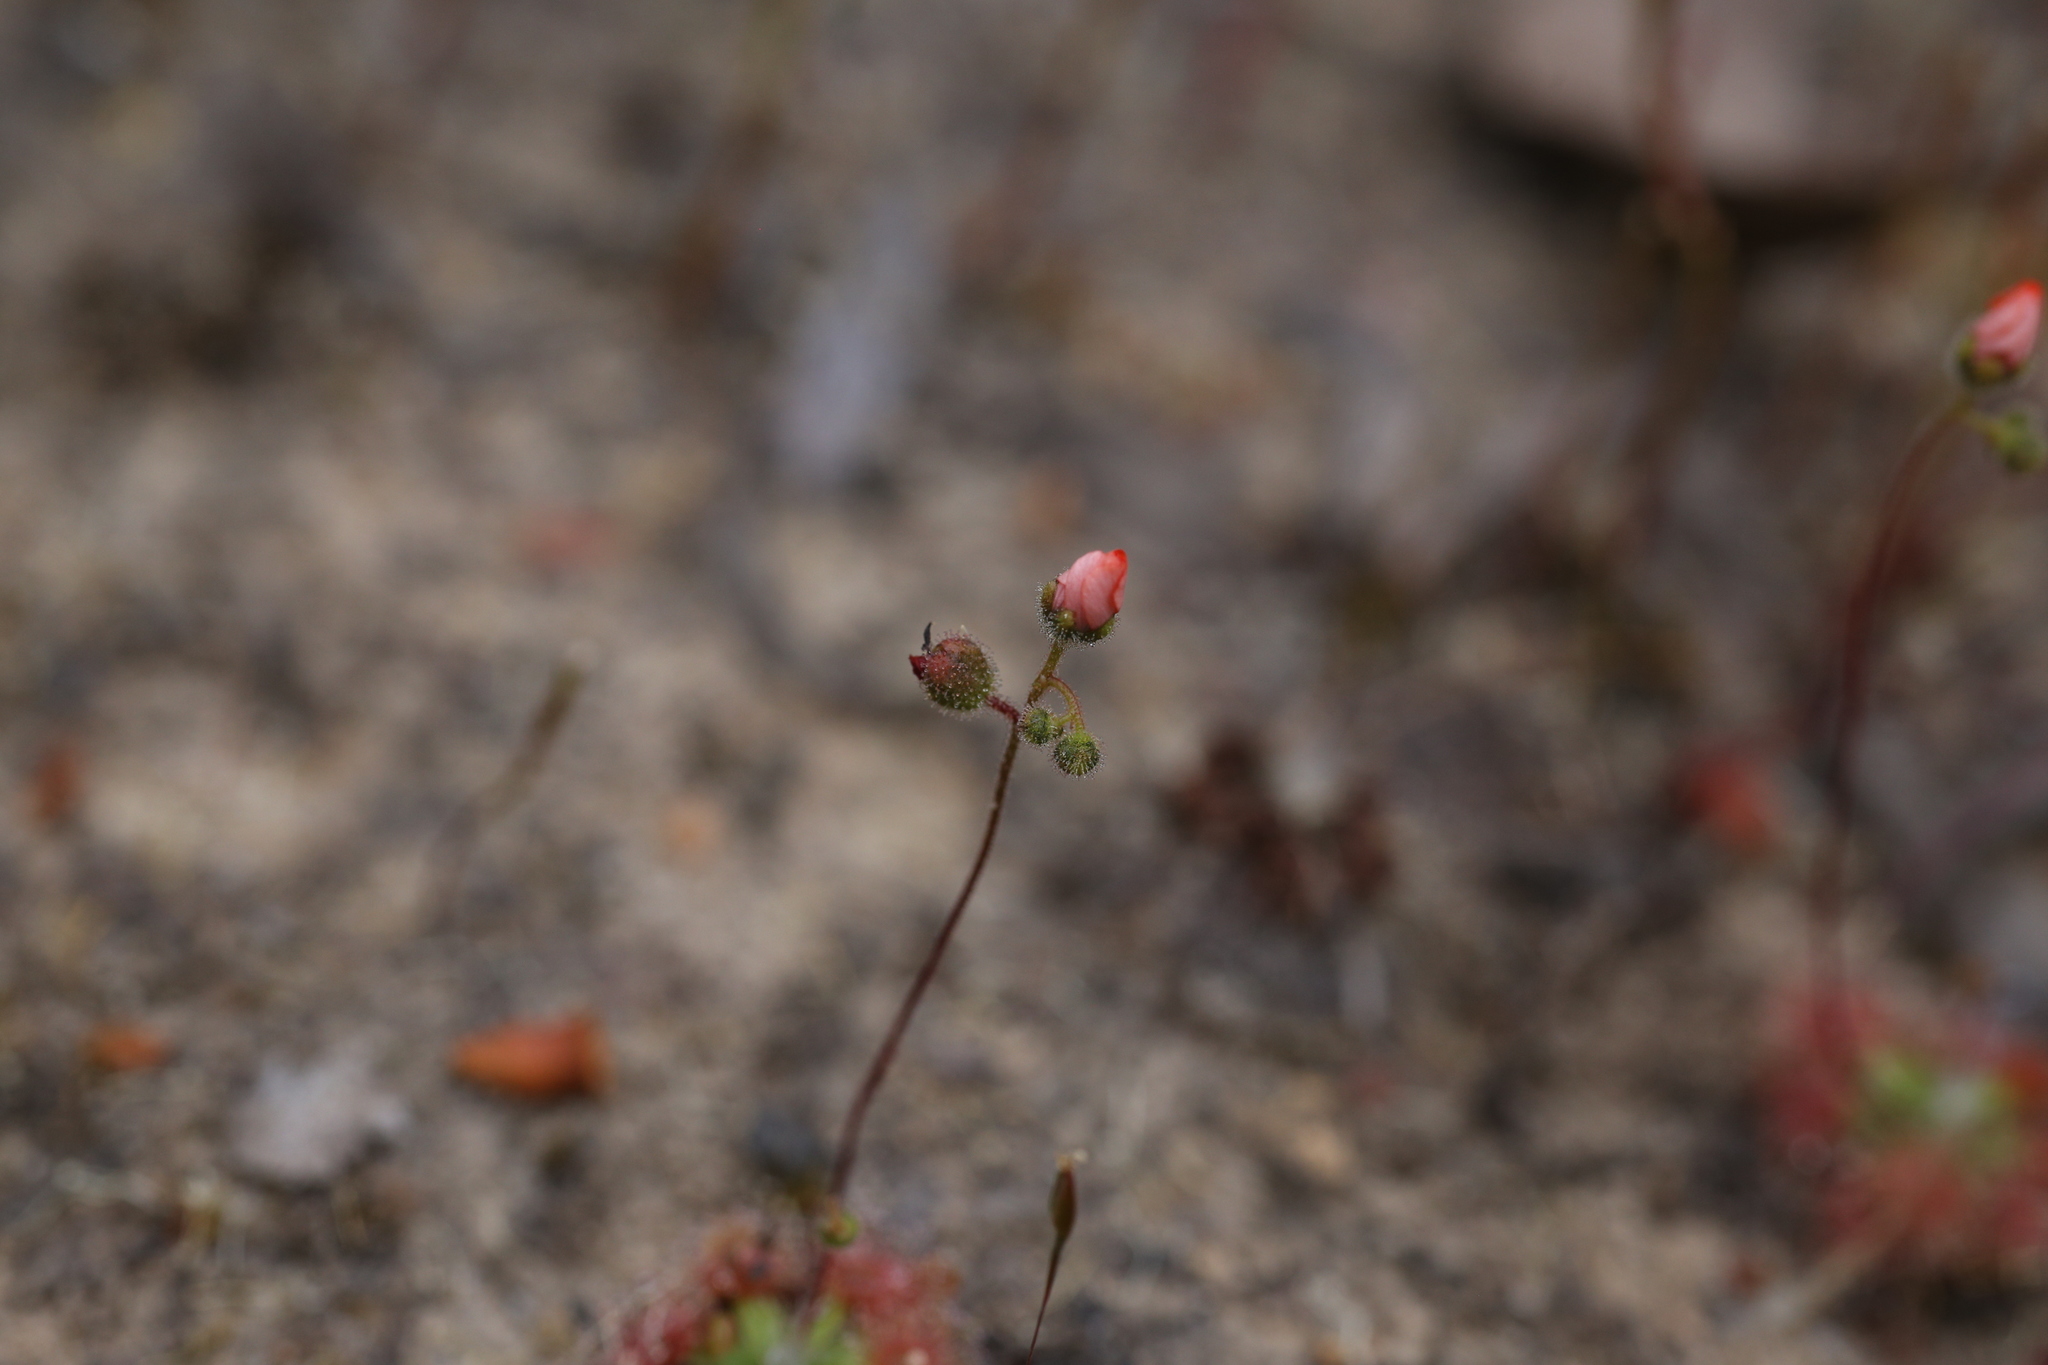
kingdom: Plantae
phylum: Tracheophyta
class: Magnoliopsida
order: Caryophyllales
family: Droseraceae
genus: Drosera
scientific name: Drosera pulchella
